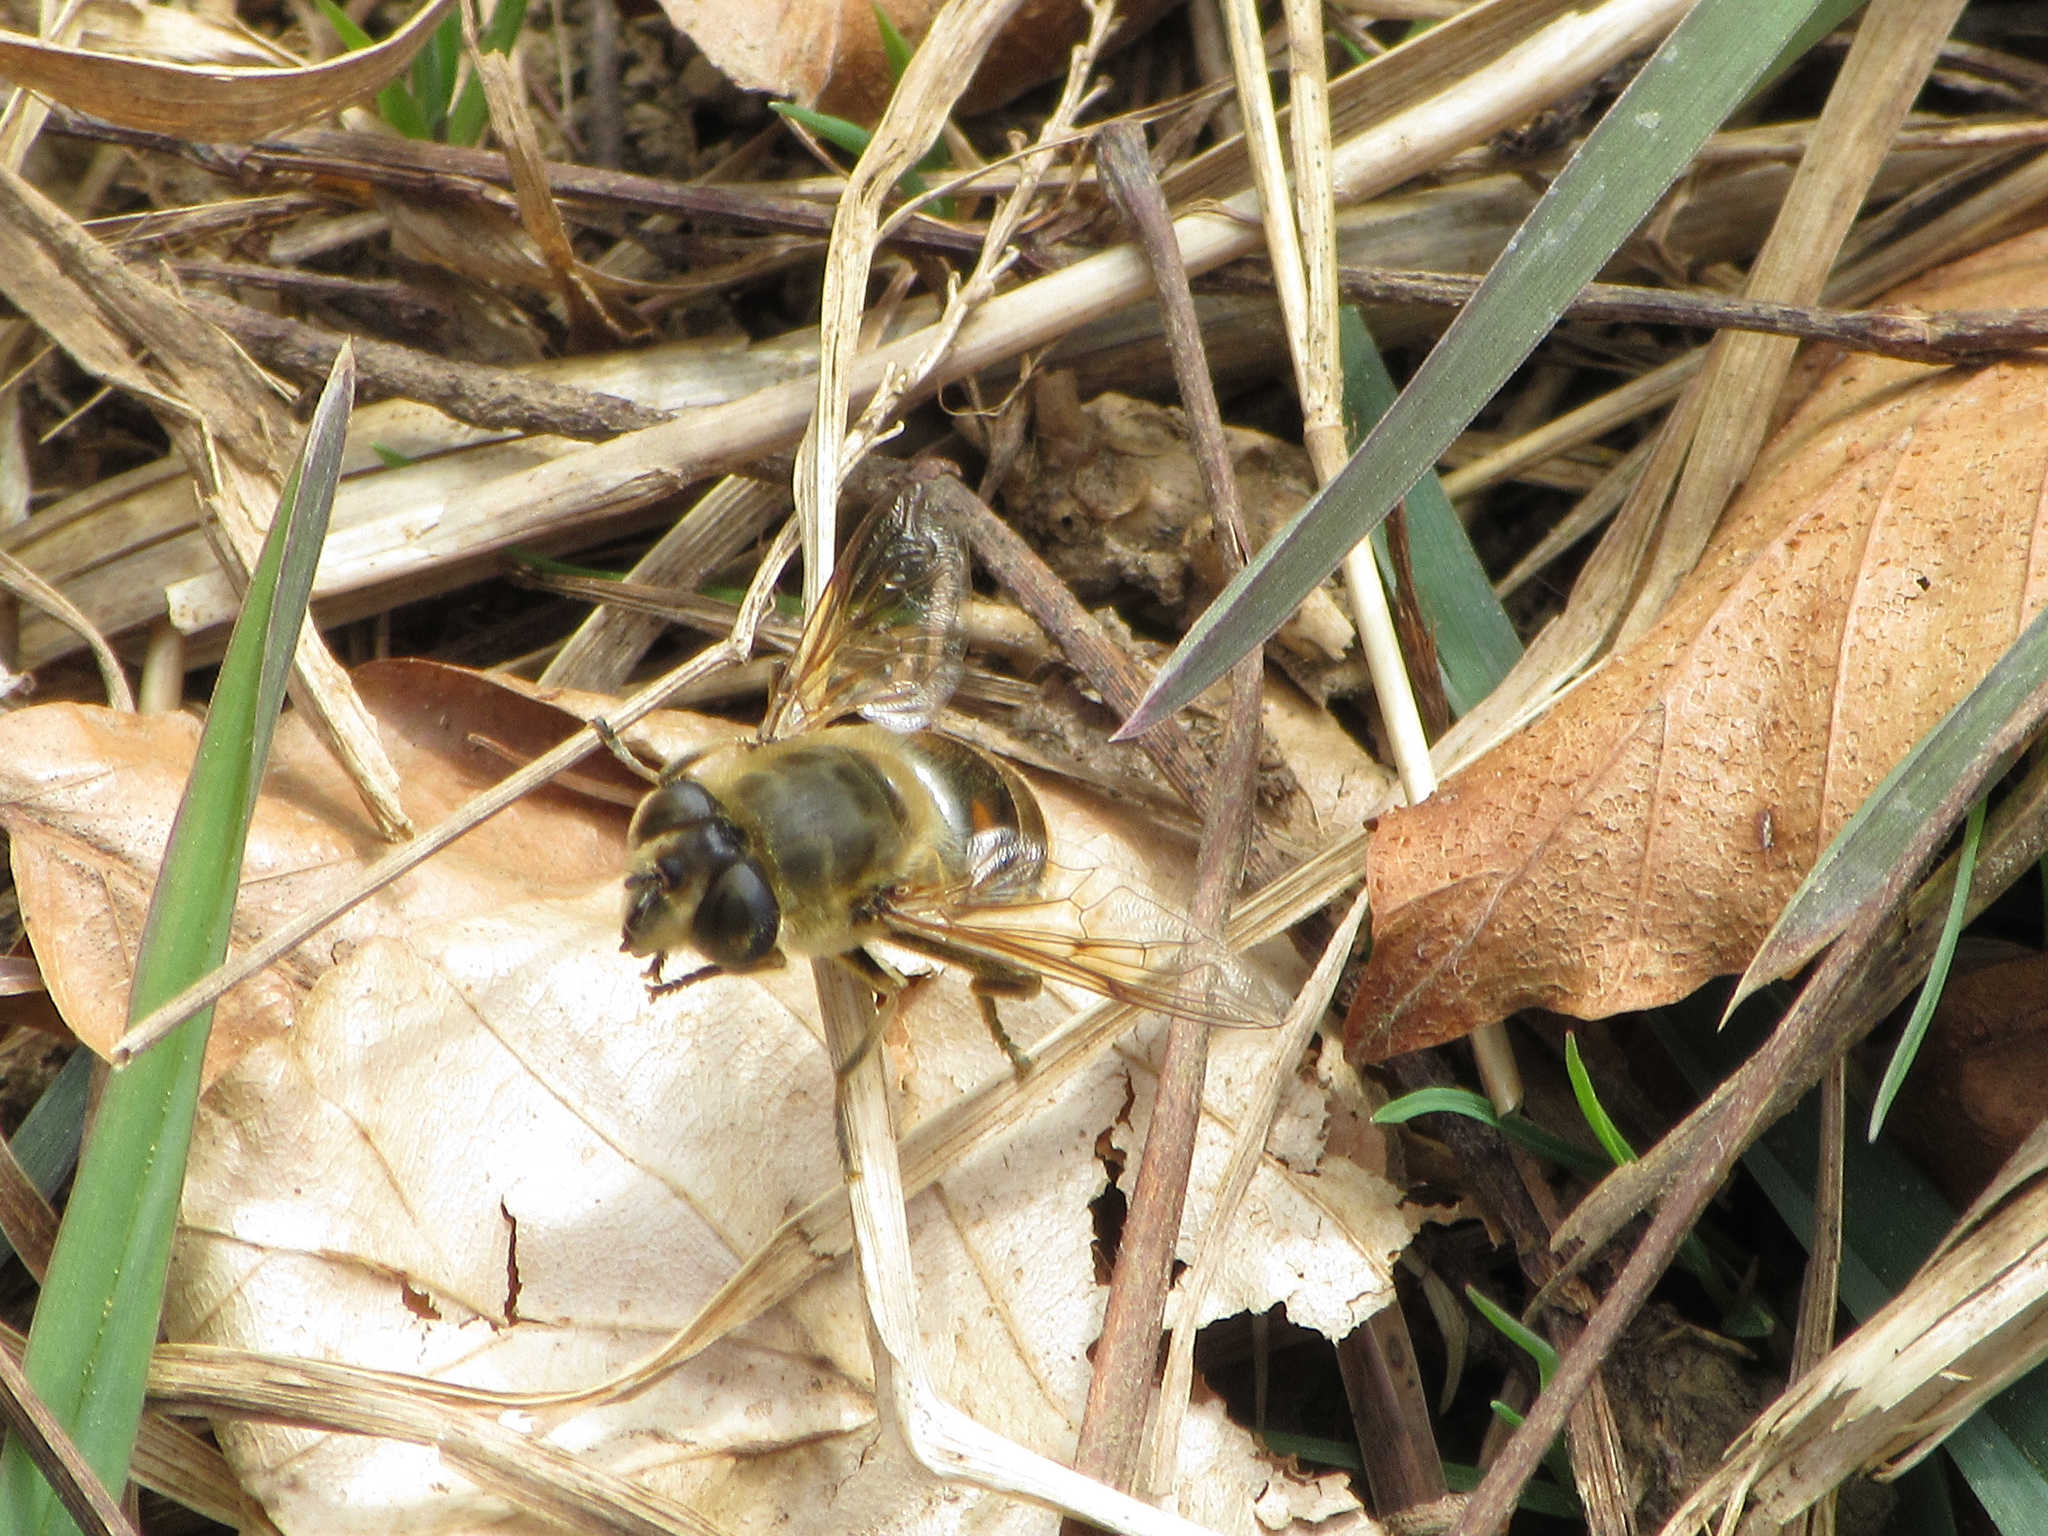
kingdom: Animalia
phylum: Arthropoda
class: Insecta
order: Diptera
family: Syrphidae
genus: Eristalis
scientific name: Eristalis tenax
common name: Drone fly
